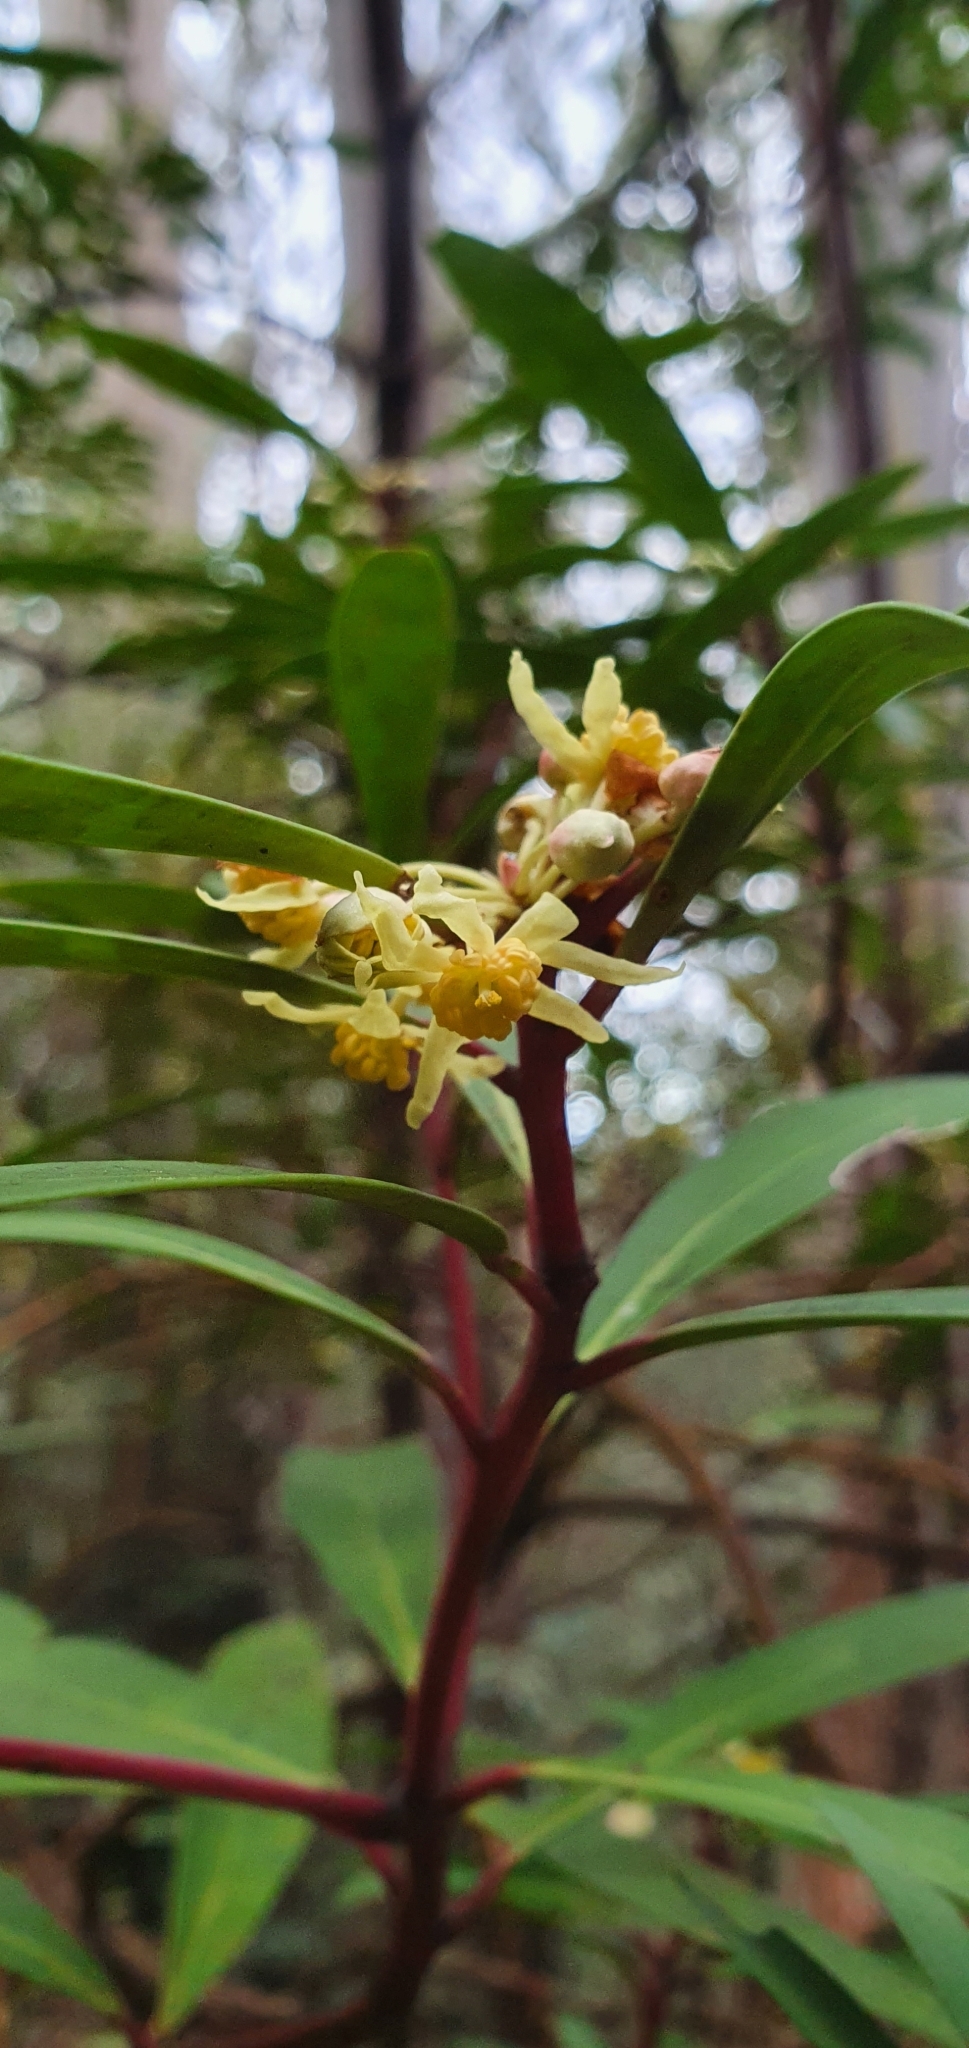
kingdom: Plantae
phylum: Tracheophyta
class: Magnoliopsida
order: Canellales
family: Winteraceae
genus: Drimys
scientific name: Drimys aromatica
